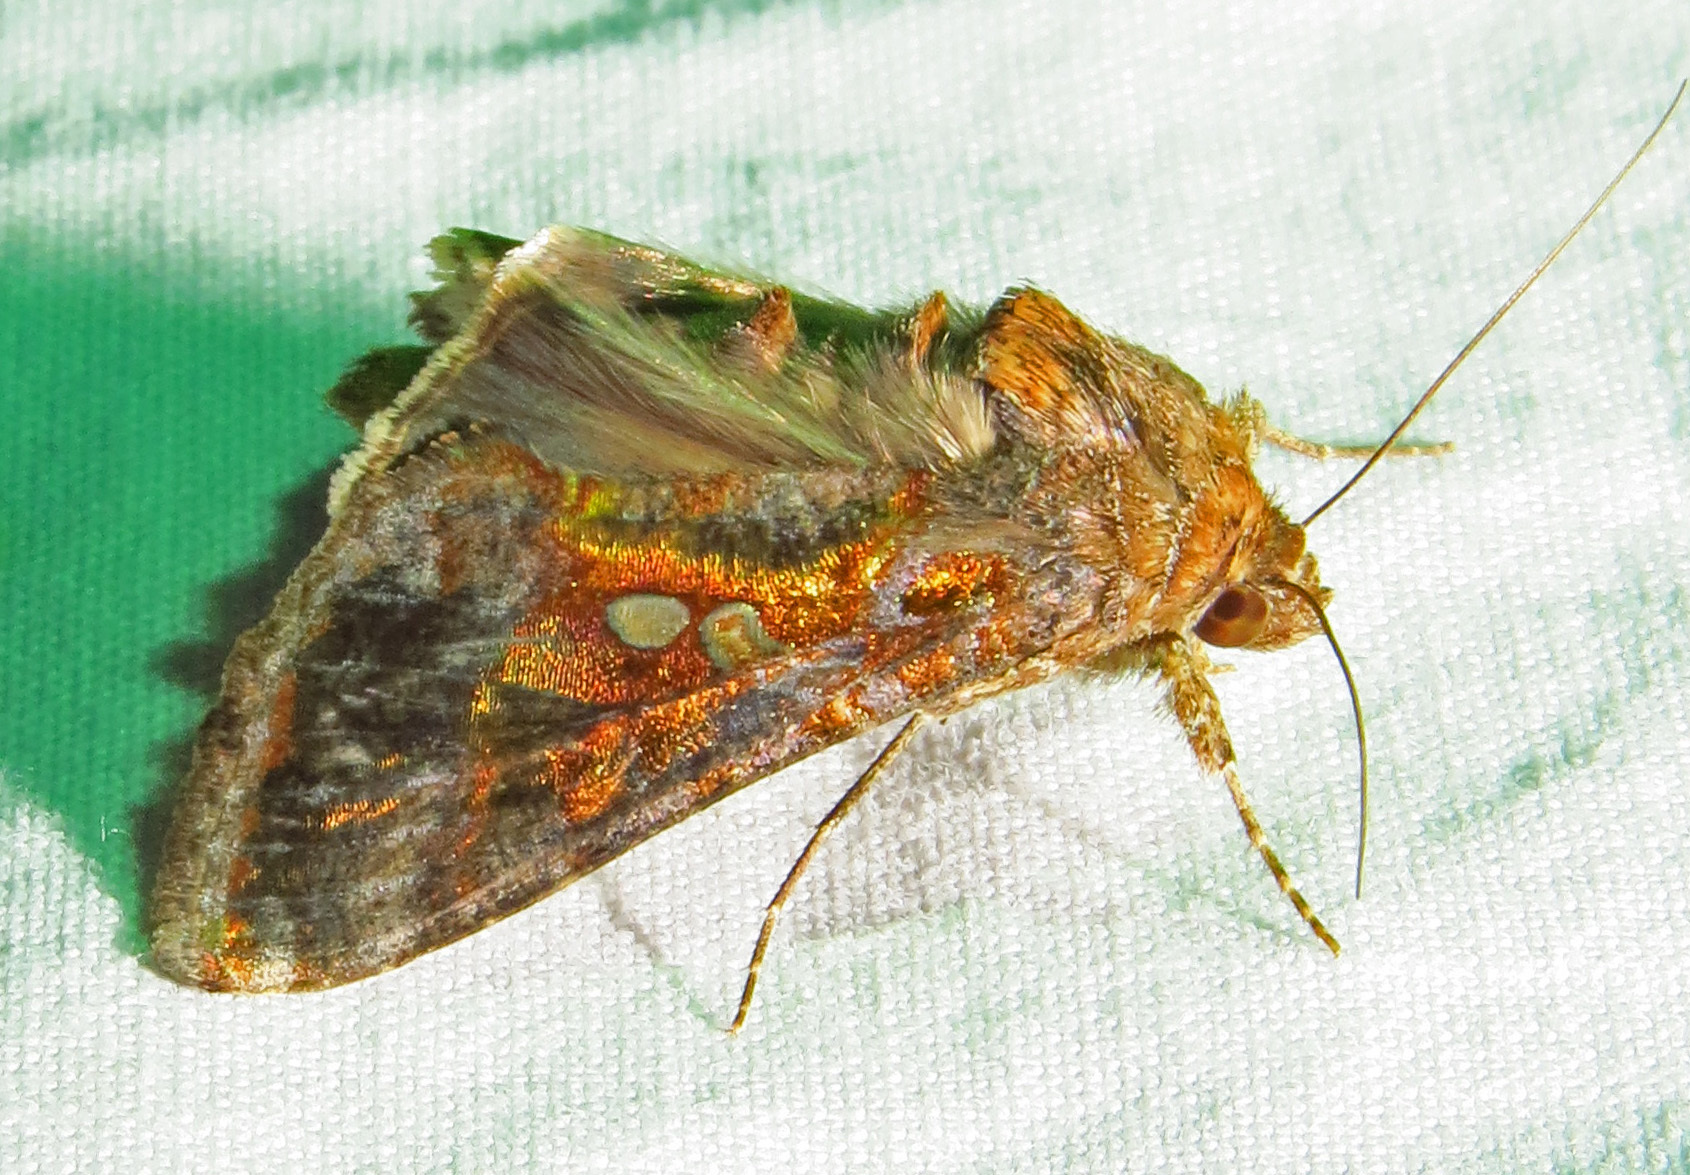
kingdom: Animalia
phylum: Arthropoda
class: Insecta
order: Lepidoptera
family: Noctuidae
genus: Chrysodeixis
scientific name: Chrysodeixis includens
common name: Cutworm moth
